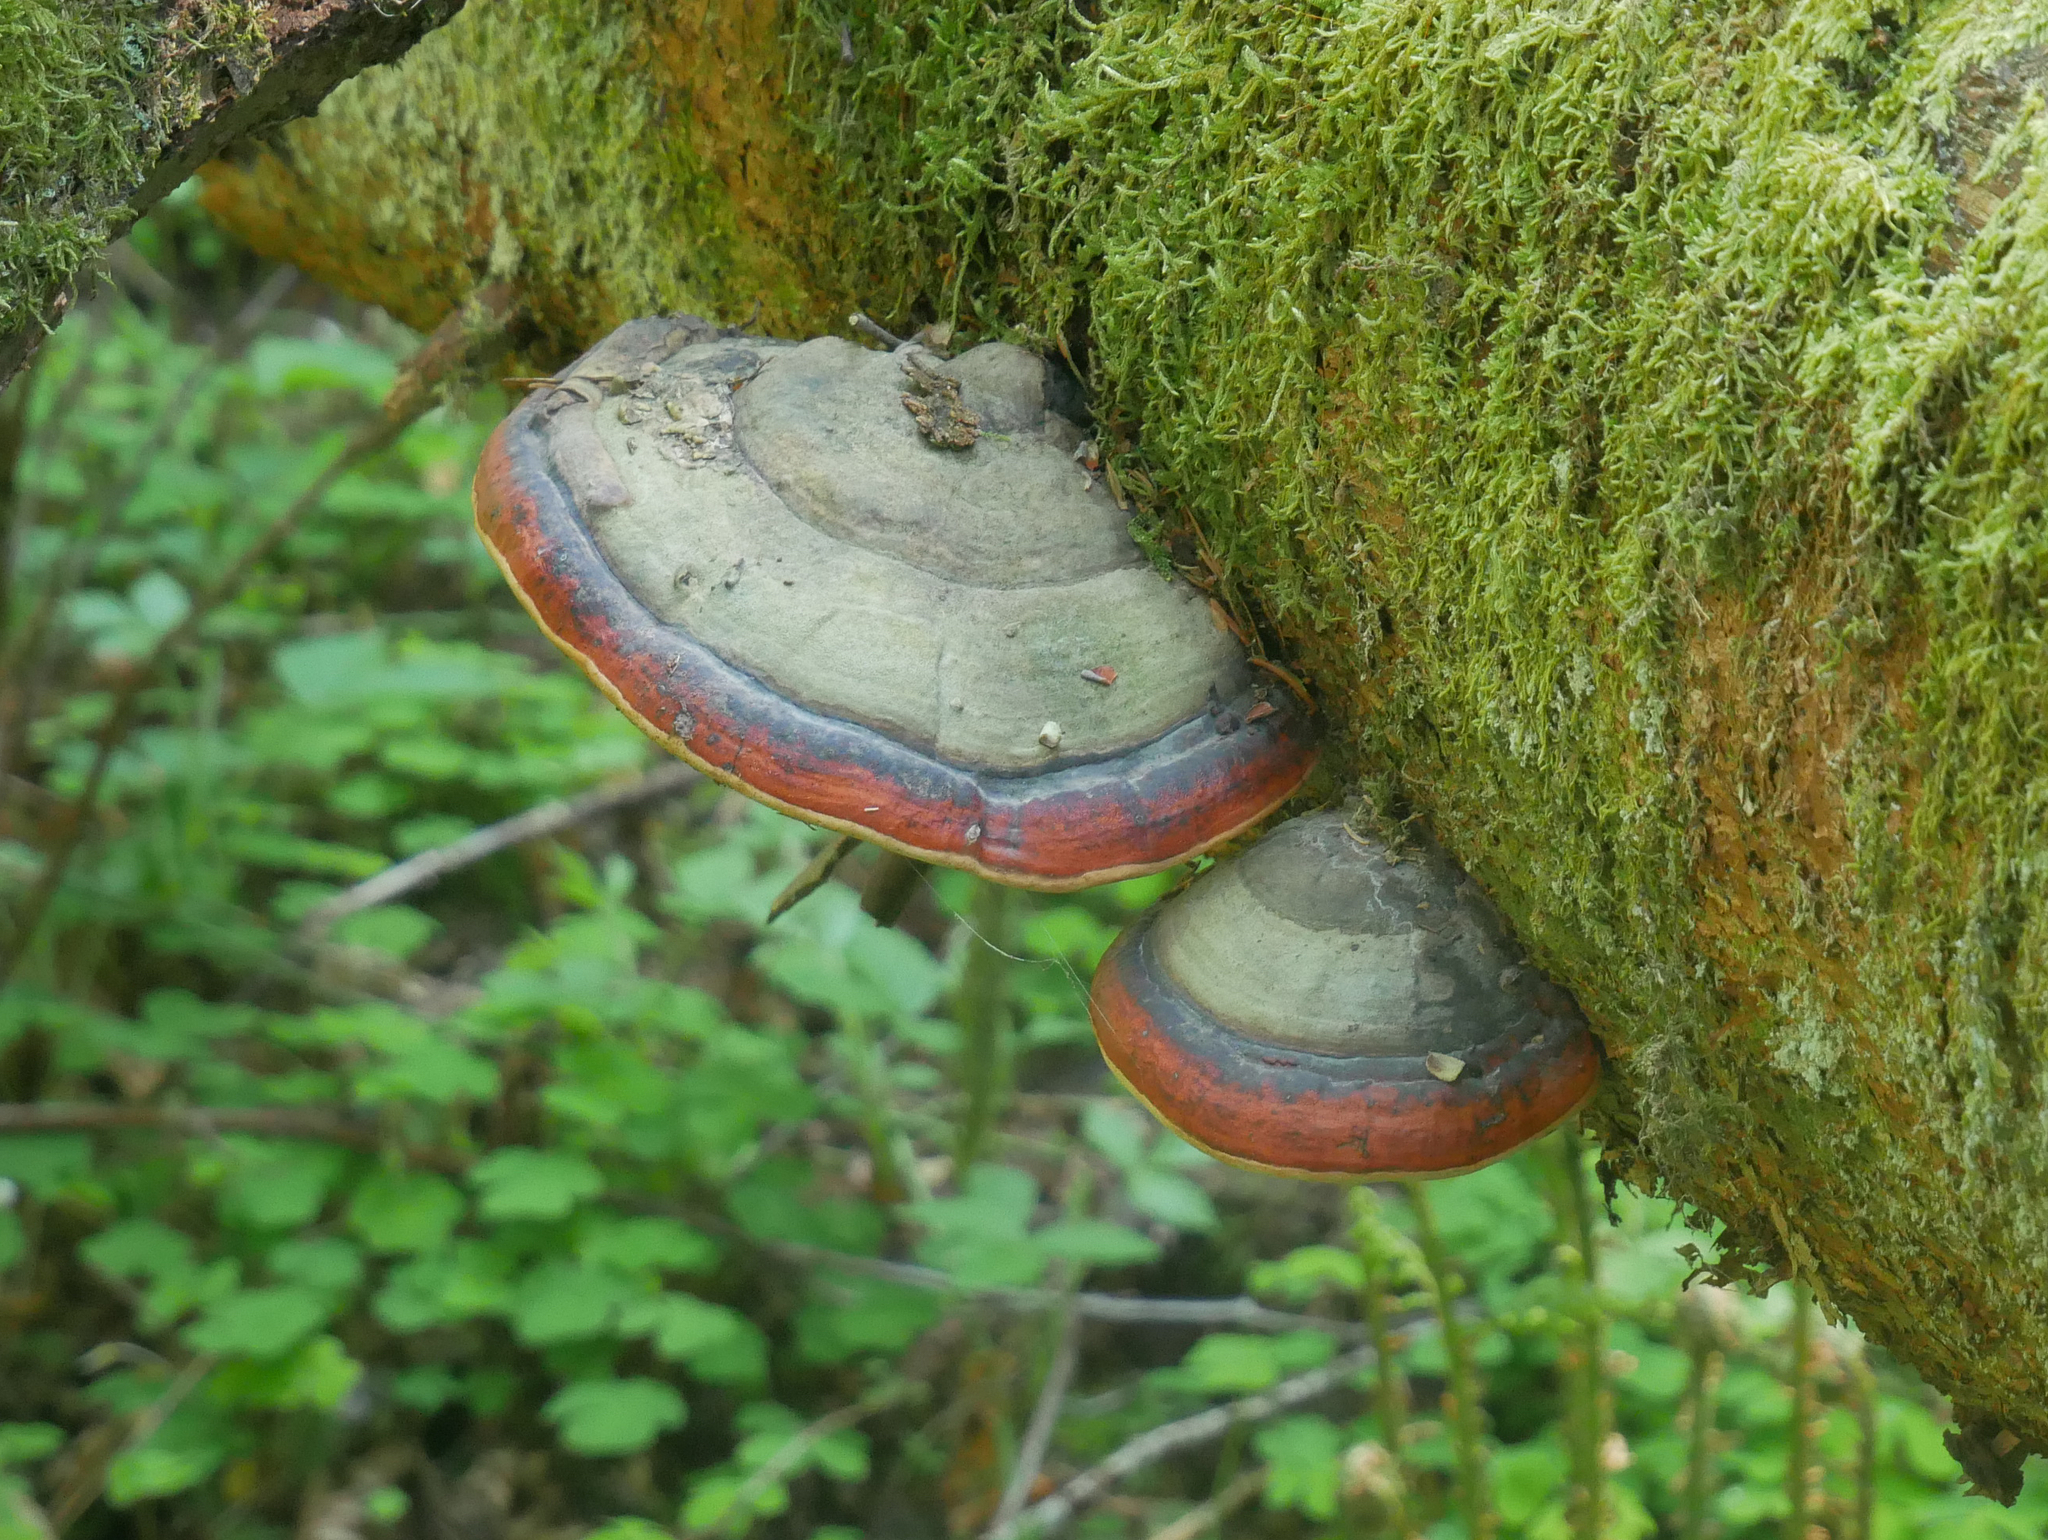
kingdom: Fungi
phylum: Basidiomycota
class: Agaricomycetes
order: Polyporales
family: Fomitopsidaceae
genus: Fomitopsis
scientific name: Fomitopsis pinicola
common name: Red-belted bracket
